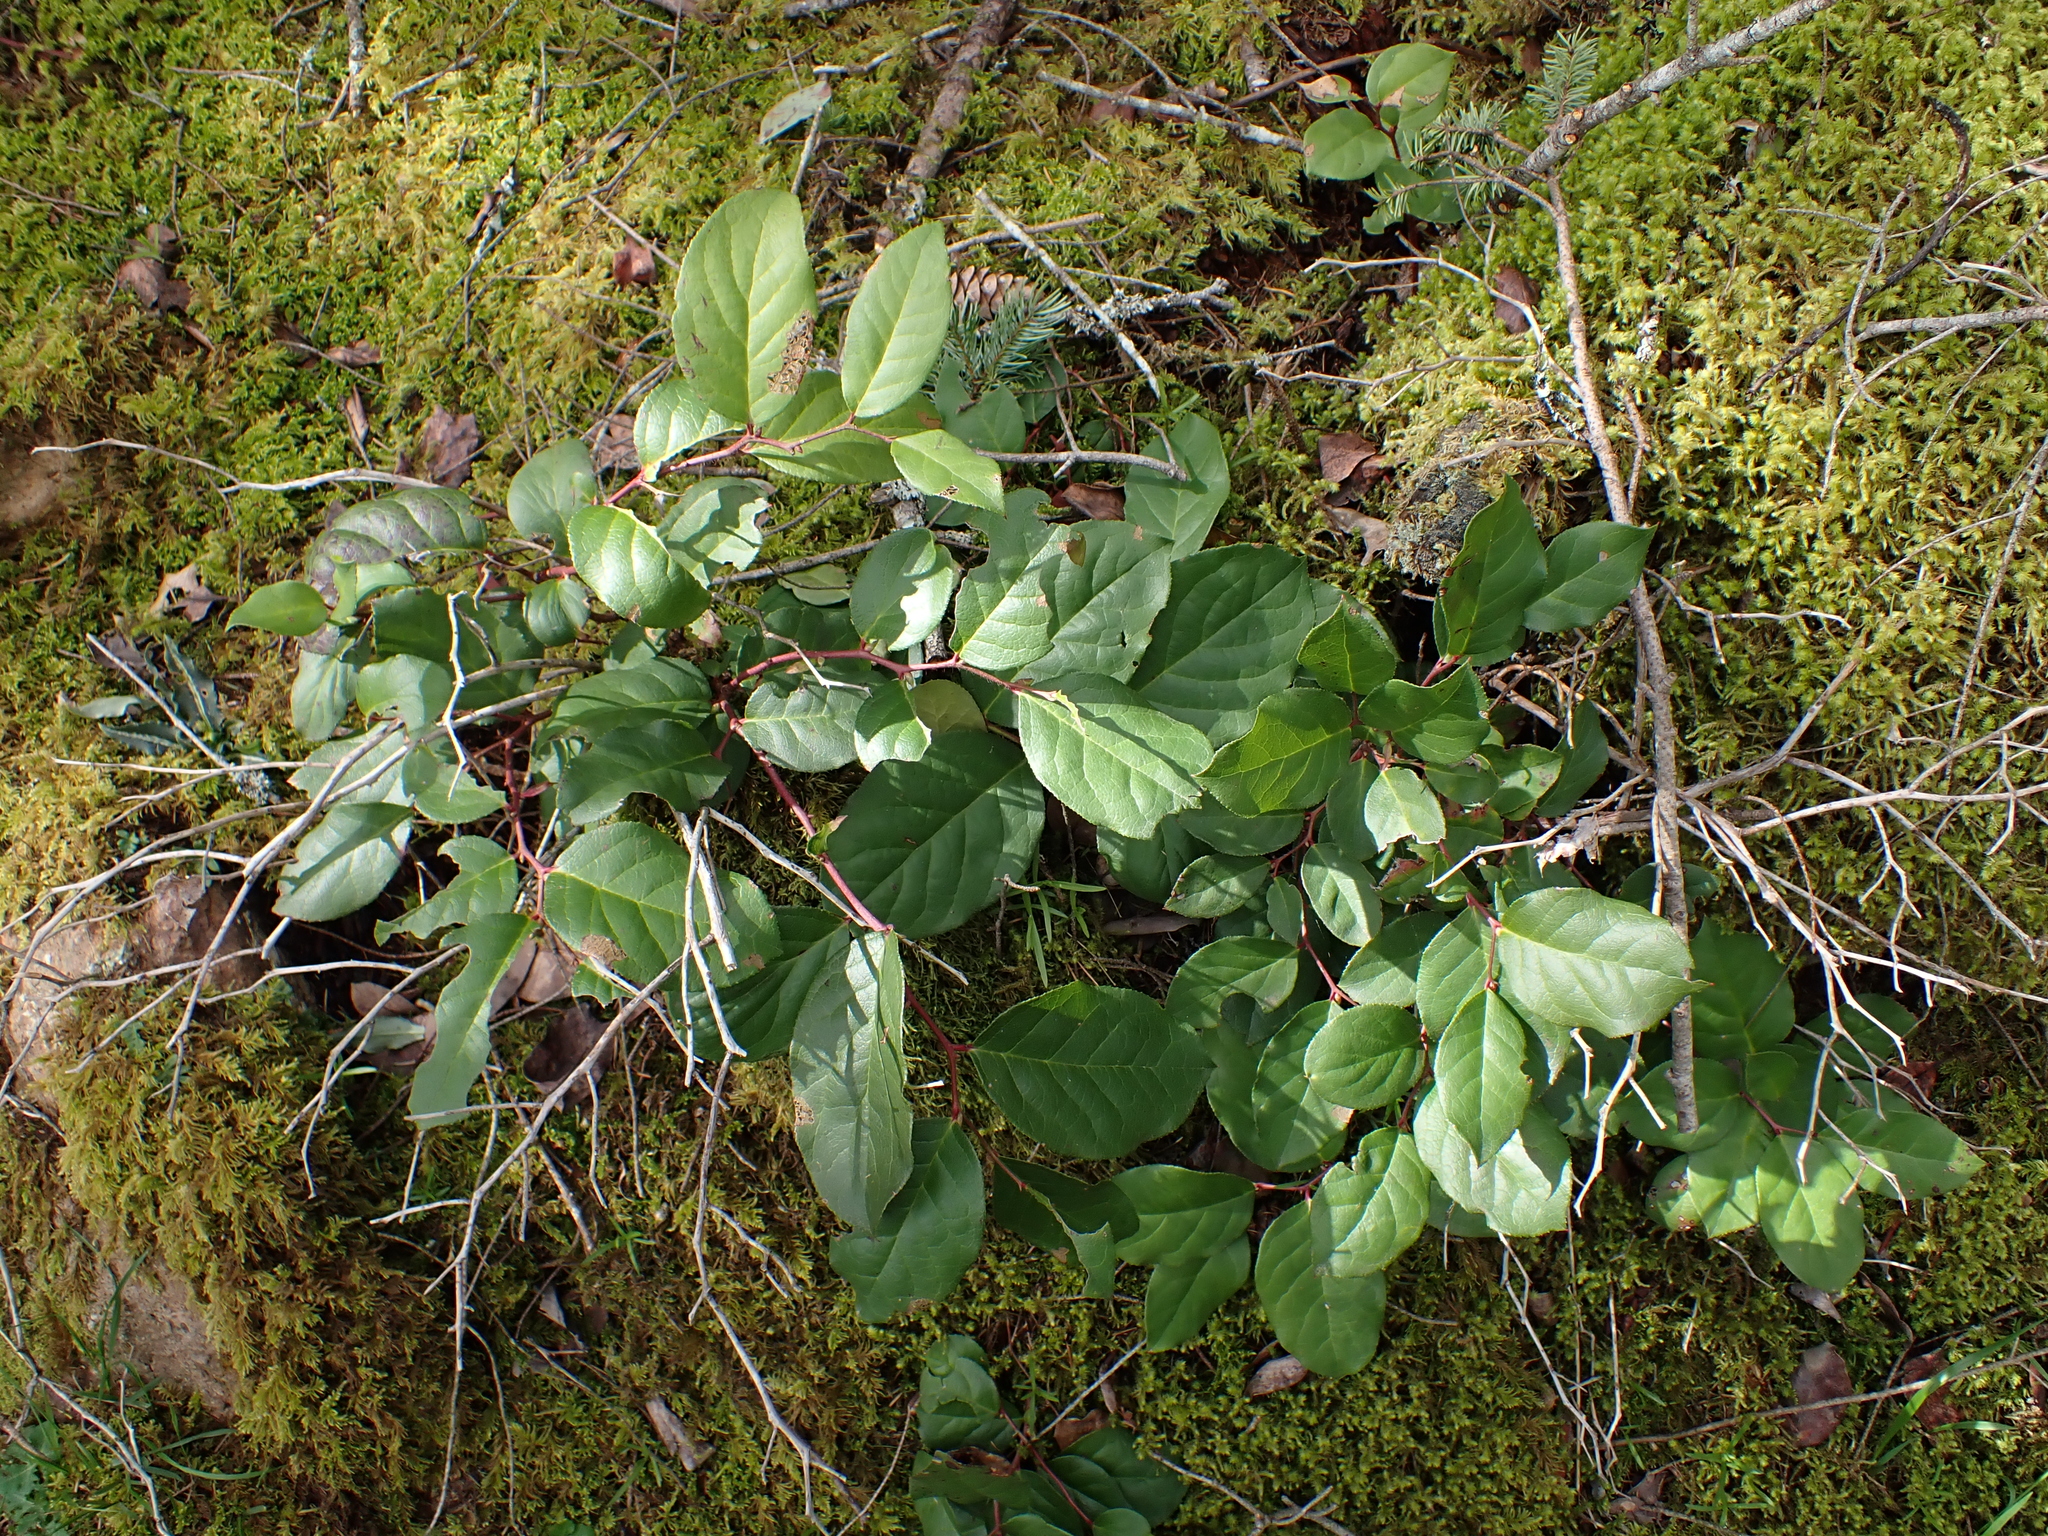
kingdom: Plantae
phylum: Tracheophyta
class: Magnoliopsida
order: Ericales
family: Ericaceae
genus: Gaultheria
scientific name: Gaultheria shallon
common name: Shallon
